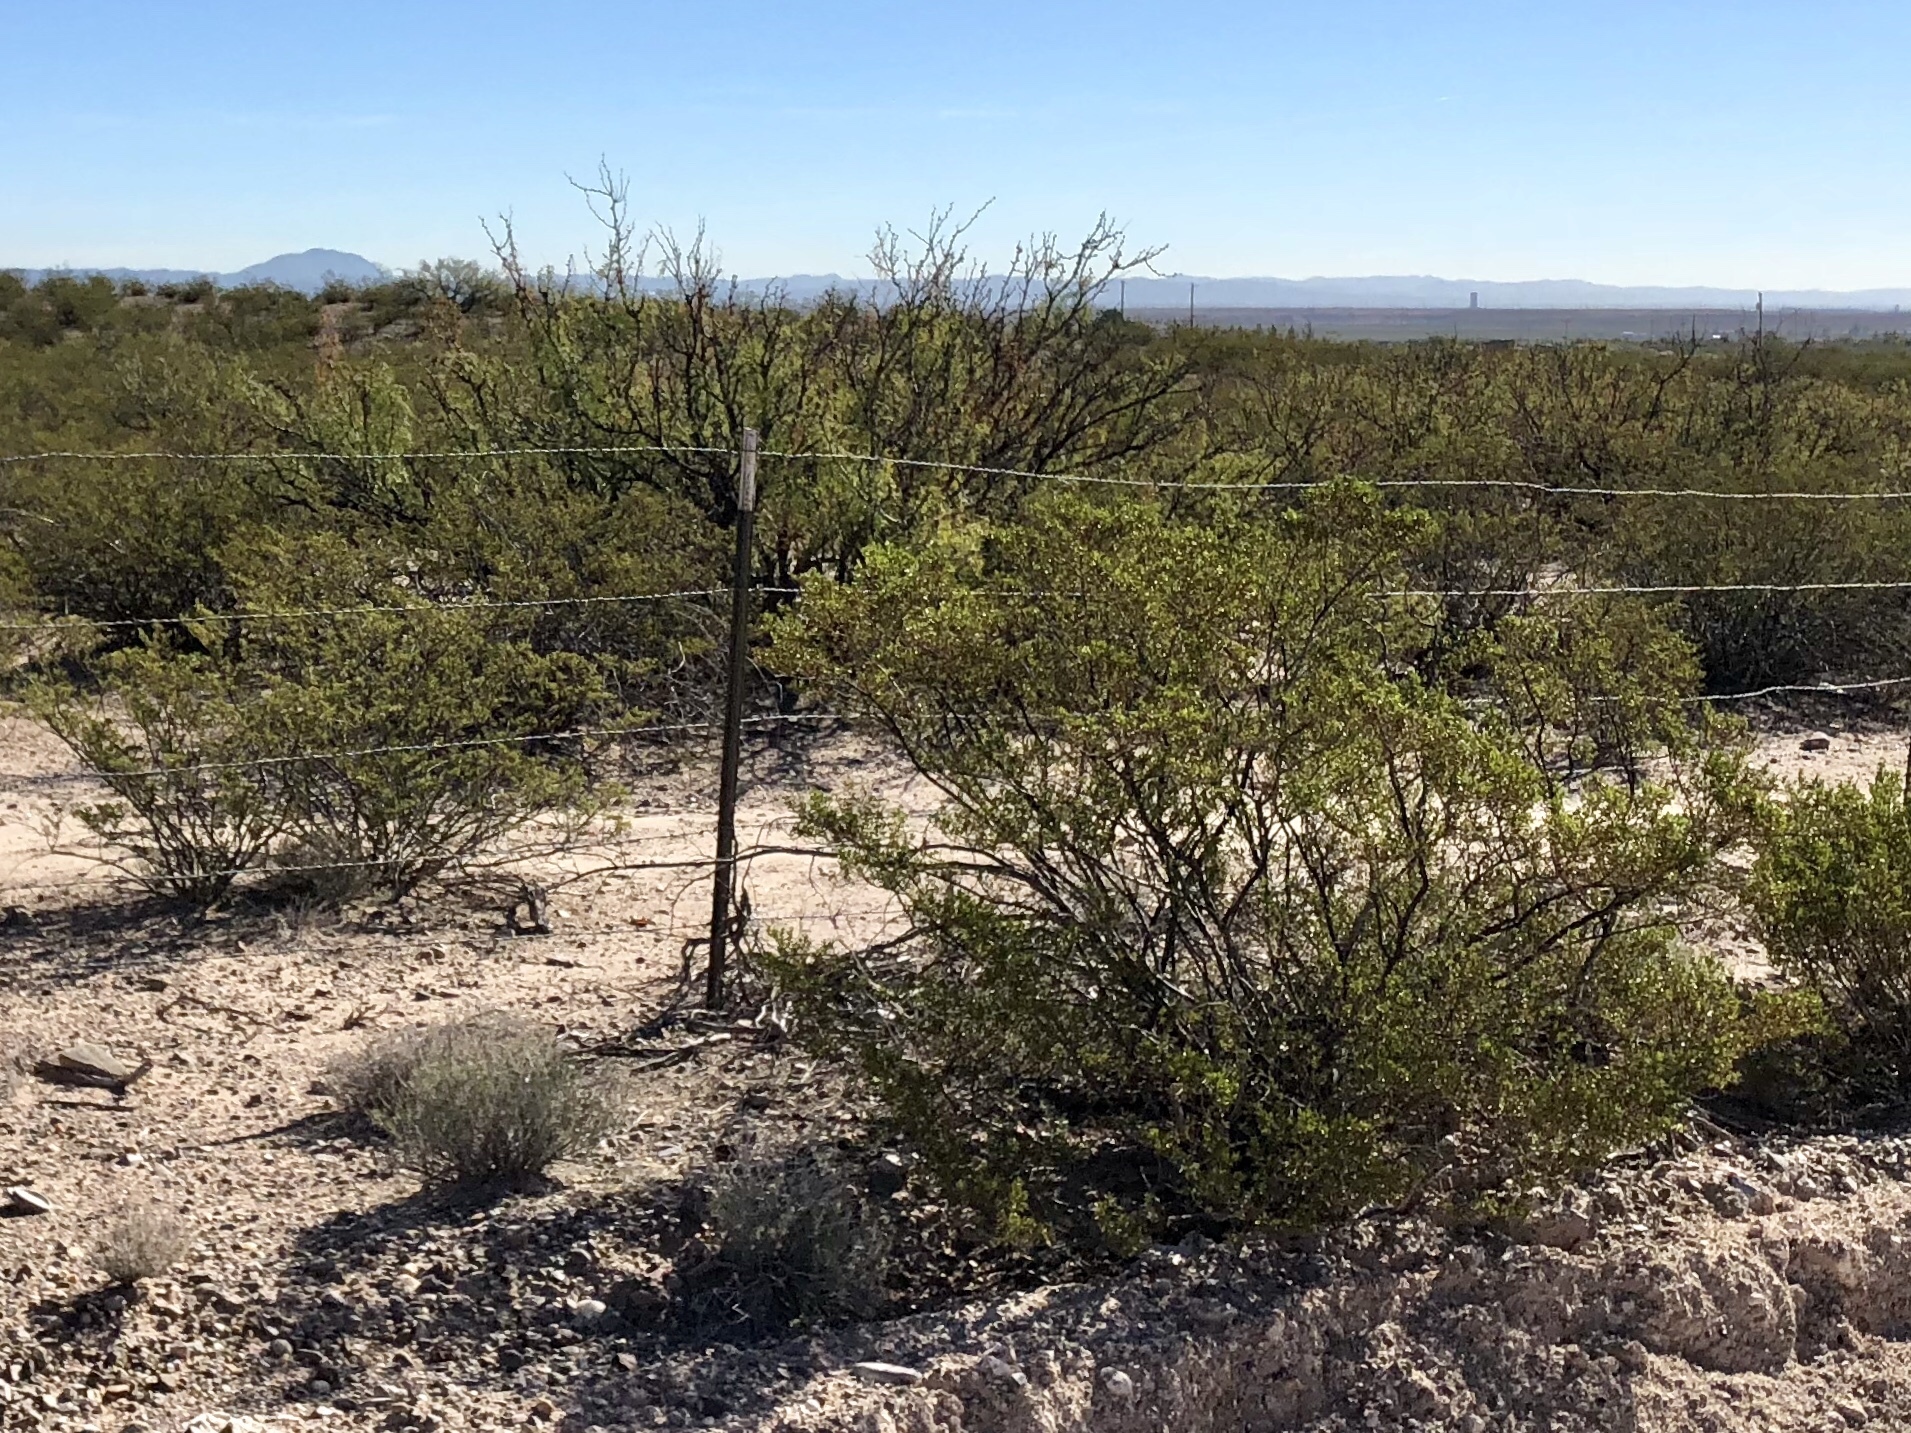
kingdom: Plantae
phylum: Tracheophyta
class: Magnoliopsida
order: Zygophyllales
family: Zygophyllaceae
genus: Larrea
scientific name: Larrea tridentata
